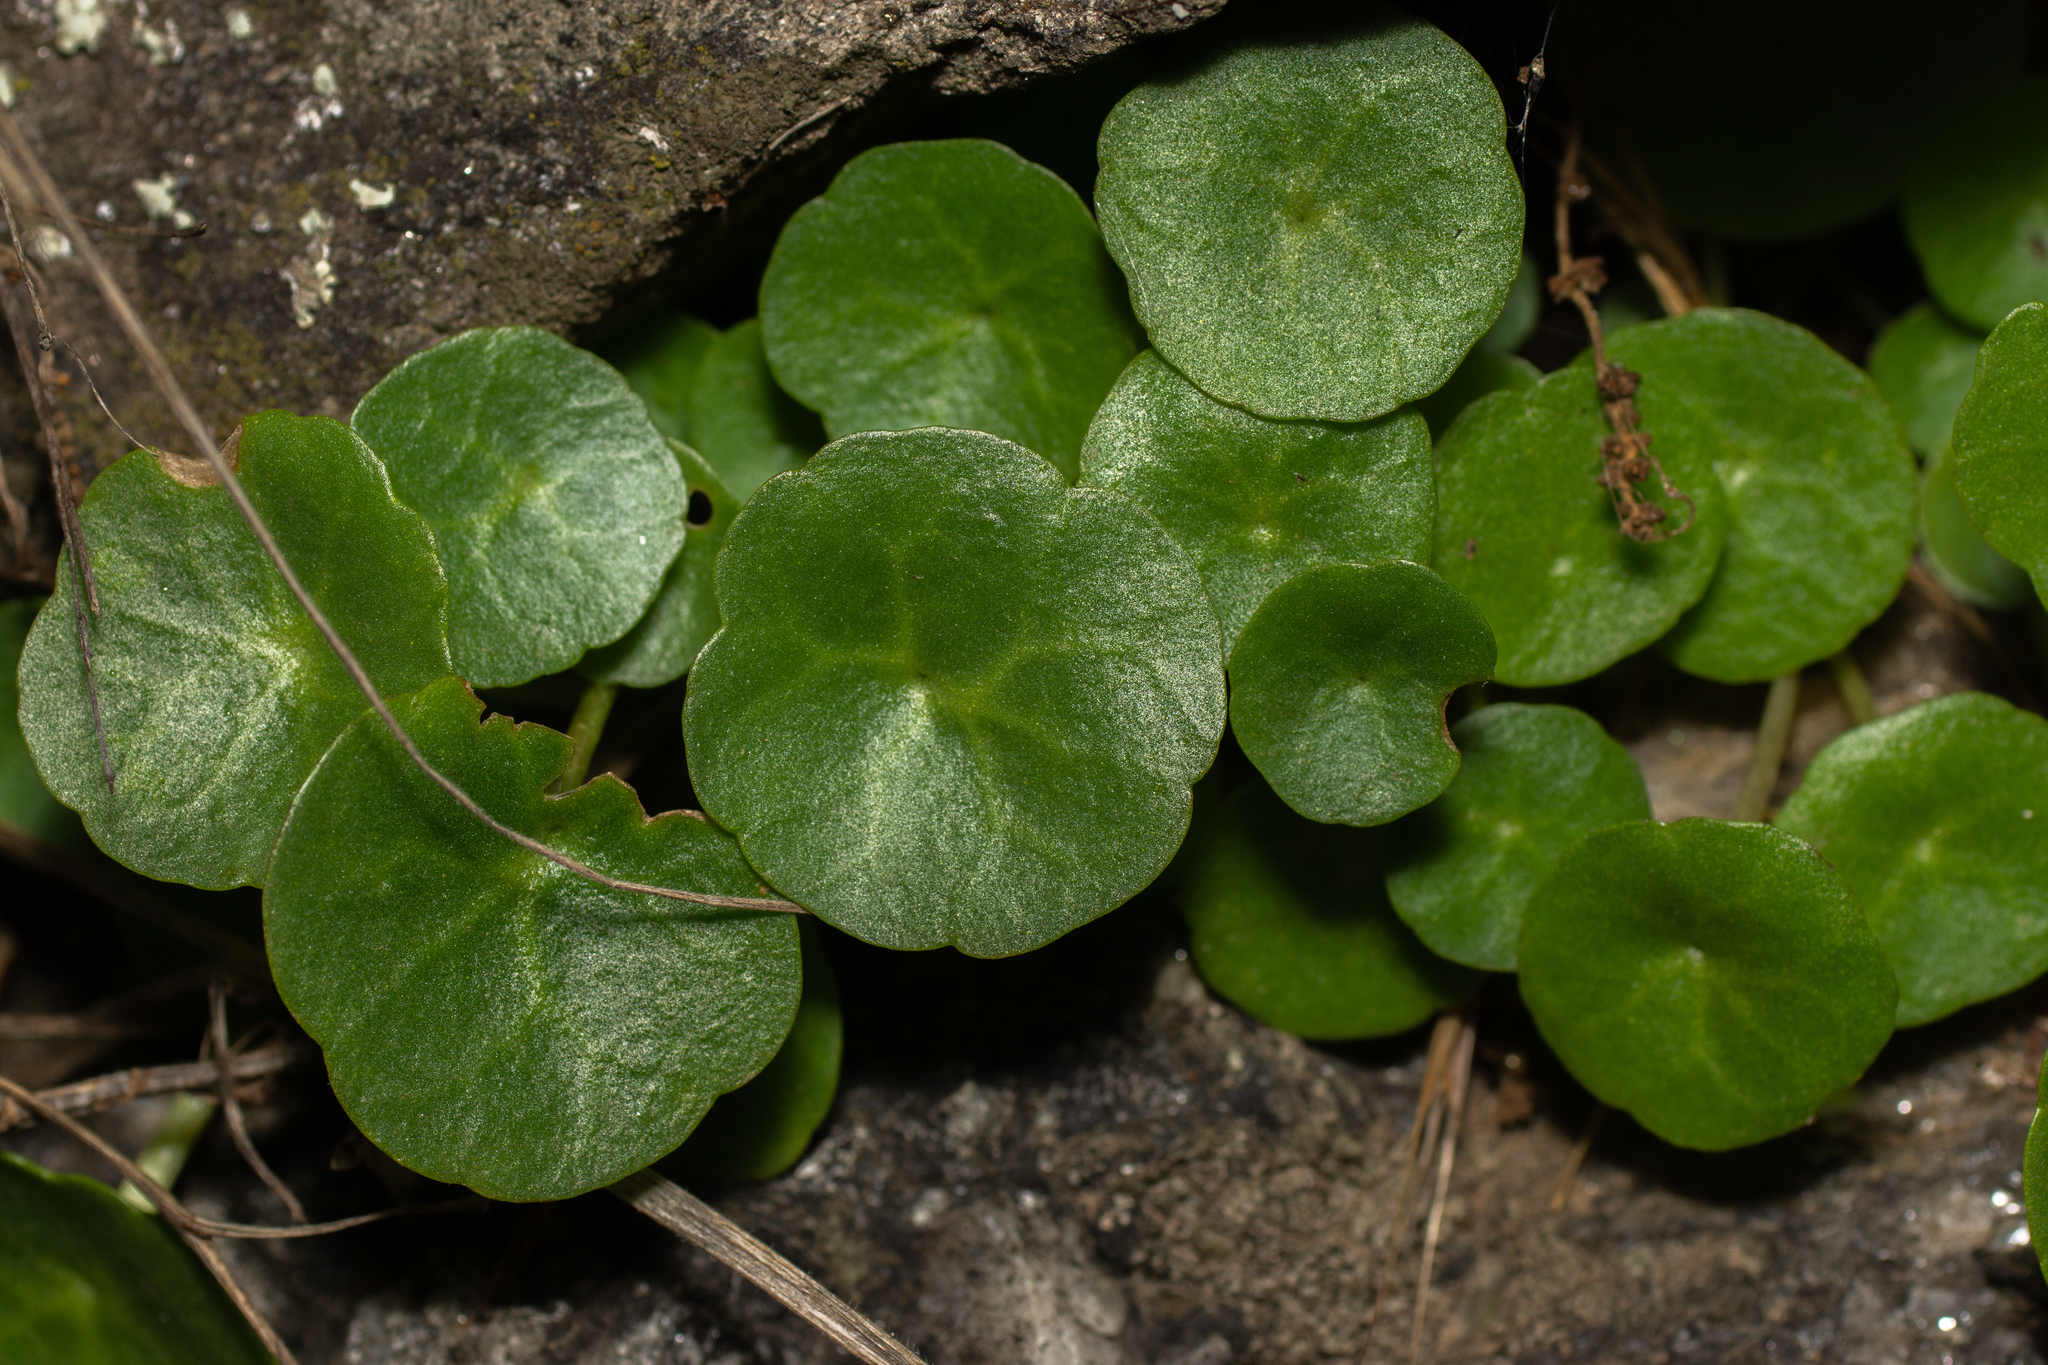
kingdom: Plantae
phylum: Tracheophyta
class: Magnoliopsida
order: Saxifragales
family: Crassulaceae
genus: Umbilicus
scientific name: Umbilicus rupestris
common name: Navelwort
